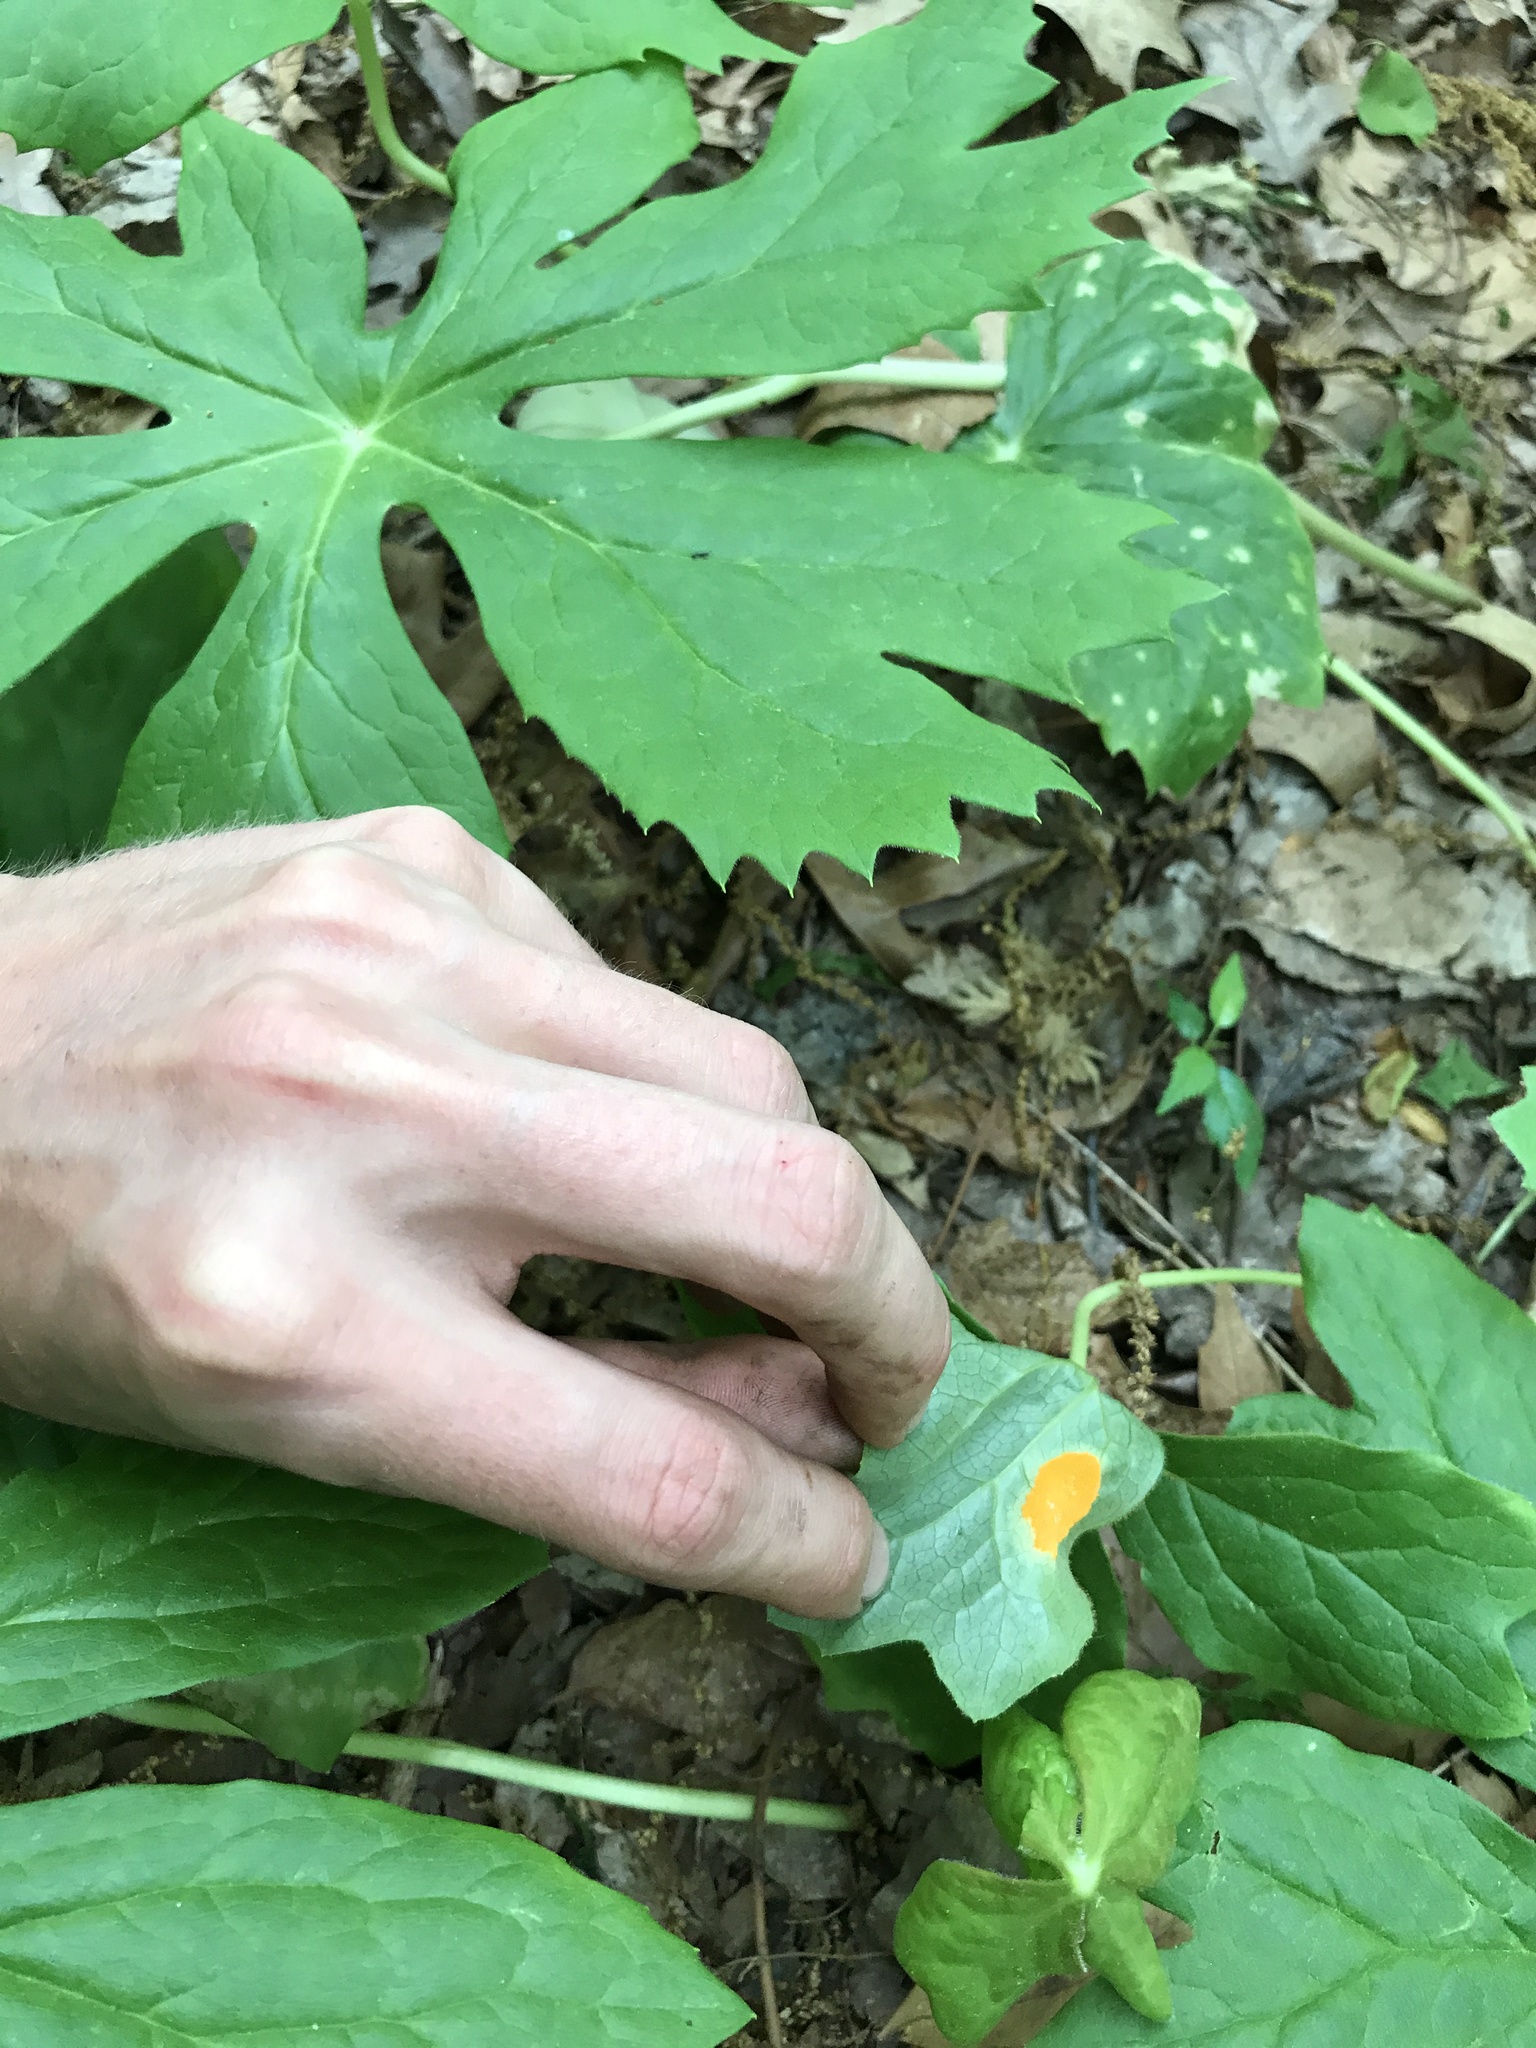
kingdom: Fungi
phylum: Basidiomycota
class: Pucciniomycetes
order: Pucciniales
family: Pucciniaceae
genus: Puccinia
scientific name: Puccinia podophylli
